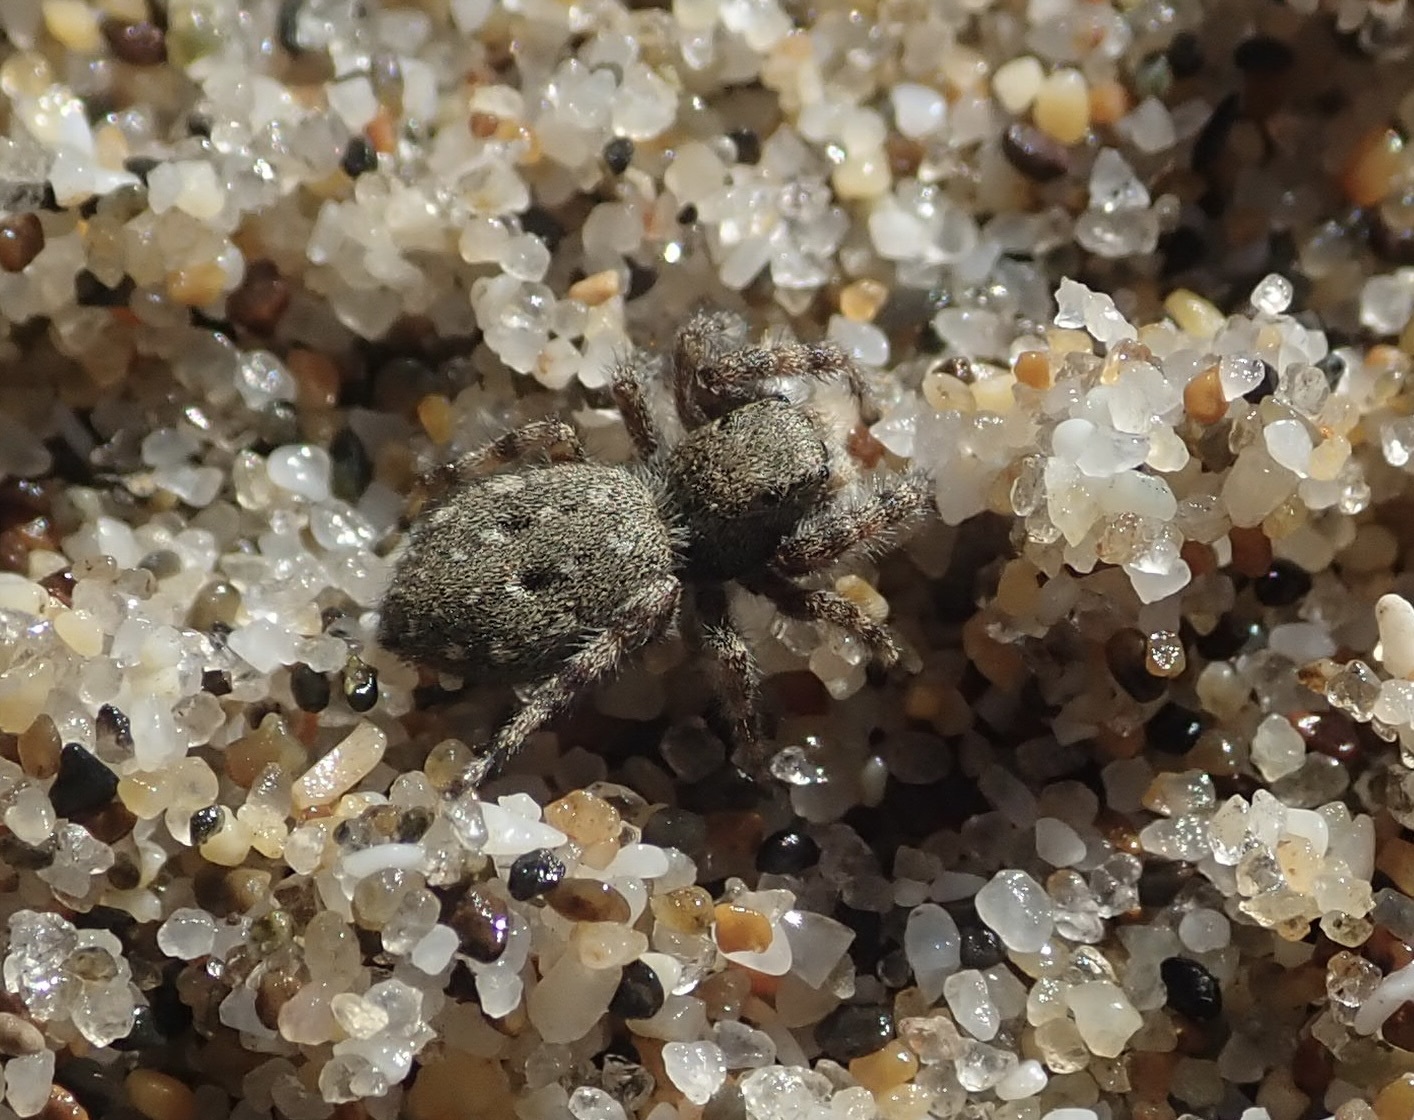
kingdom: Animalia
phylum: Arthropoda
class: Arachnida
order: Araneae
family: Salticidae
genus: Terralonus
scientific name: Terralonus californicus
